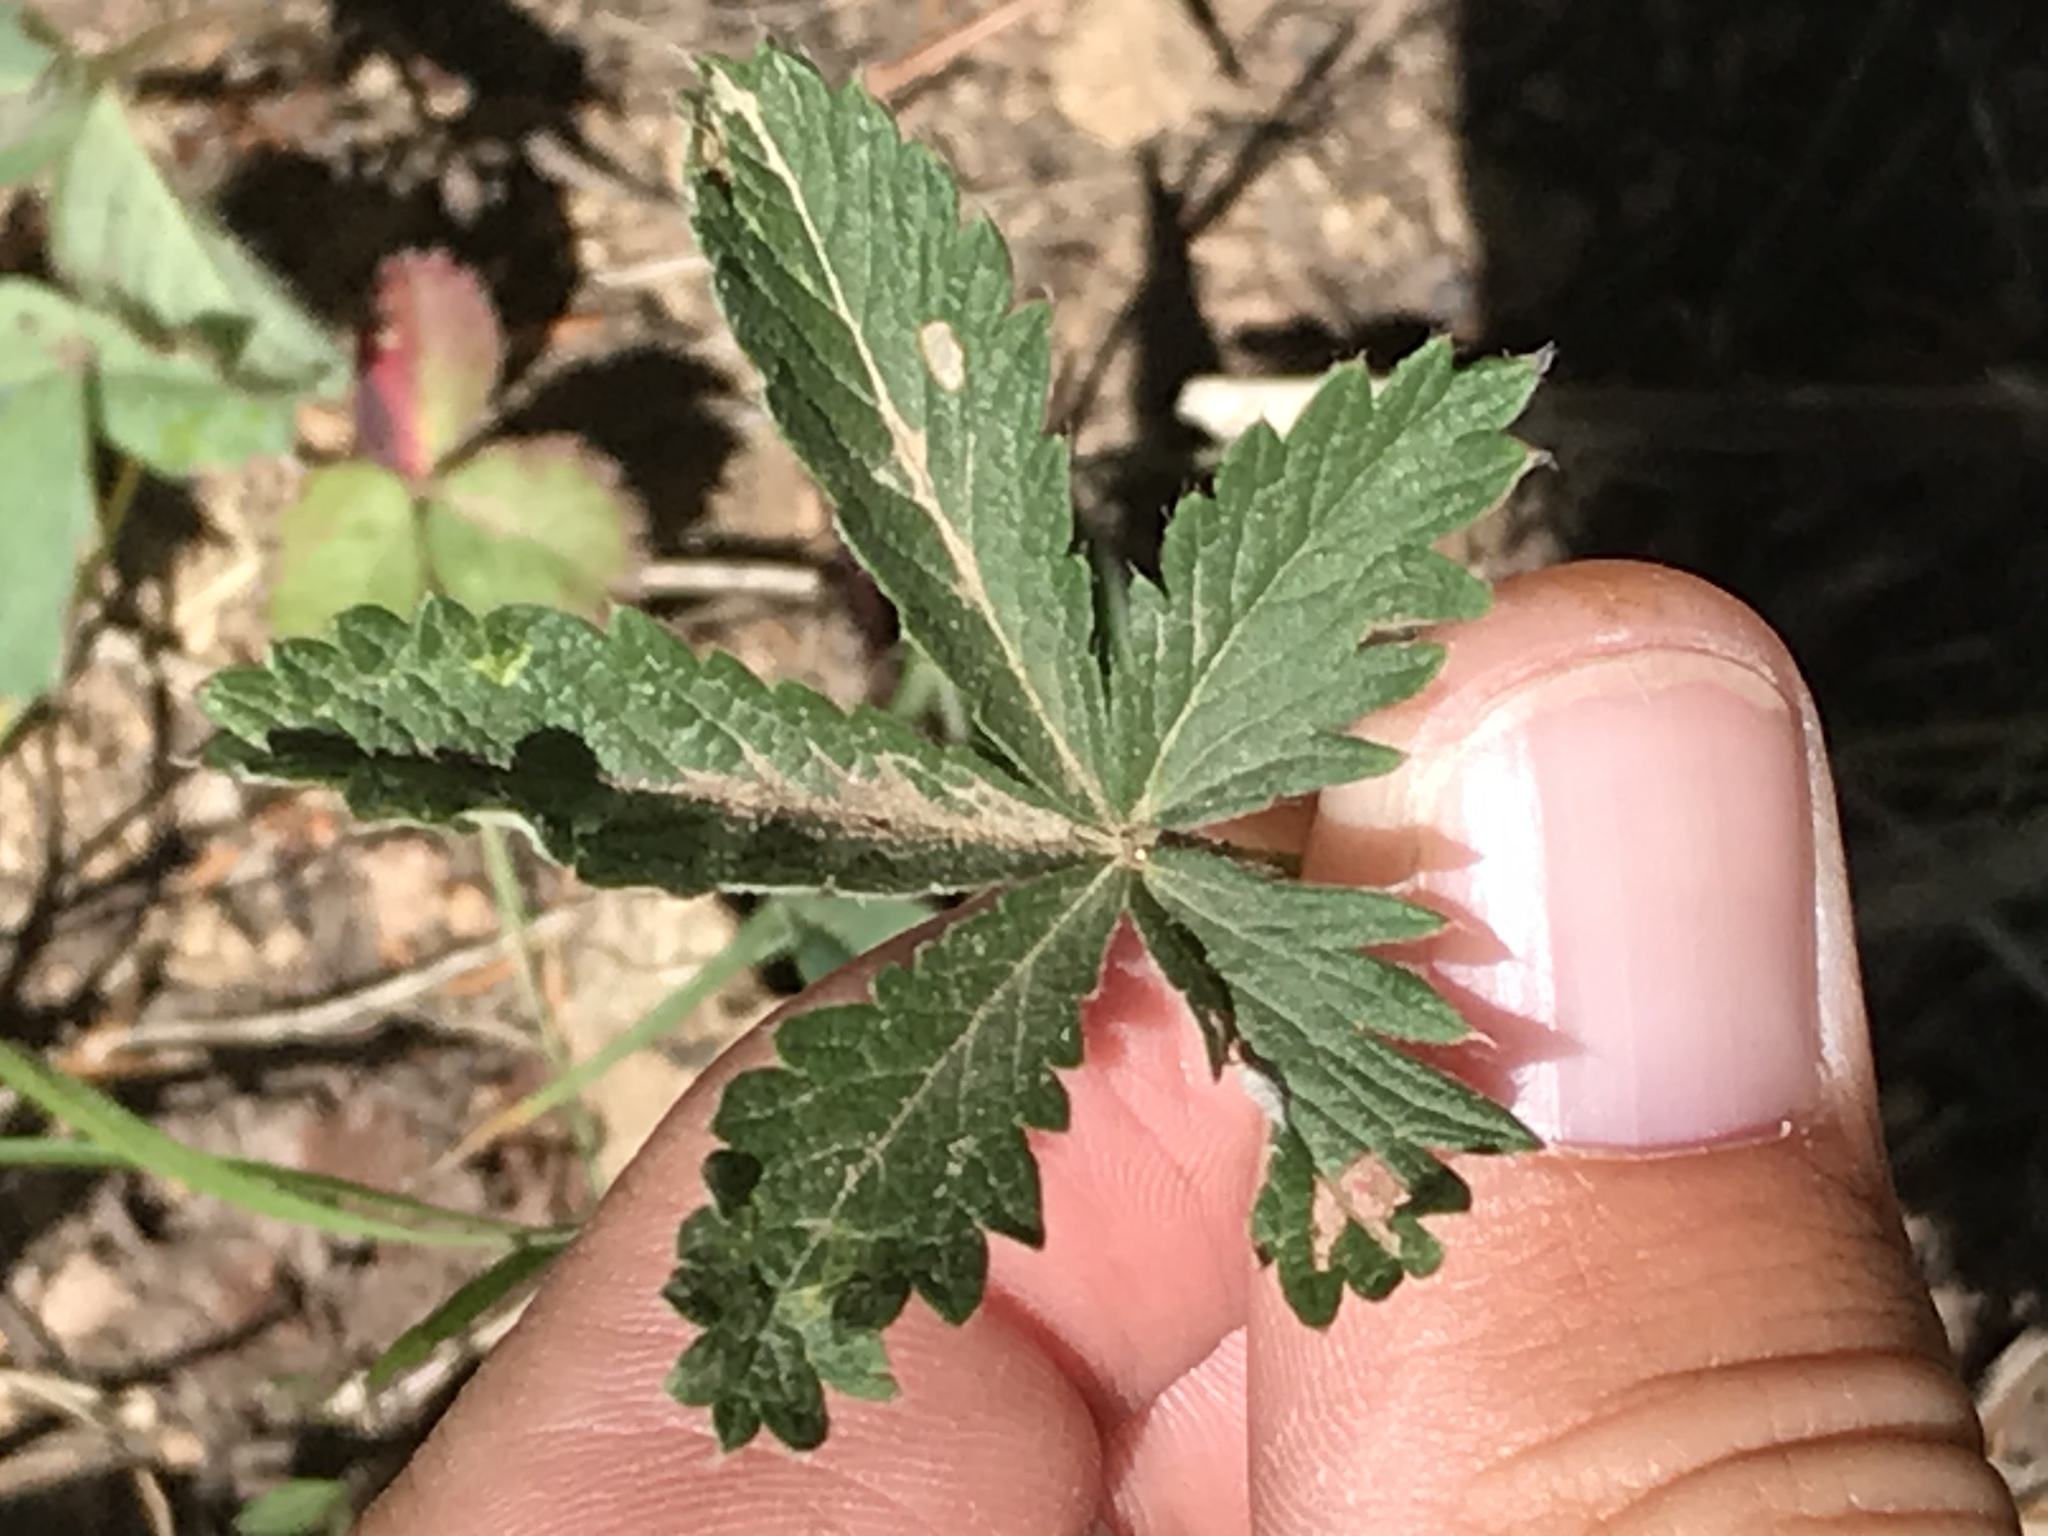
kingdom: Plantae
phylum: Tracheophyta
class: Magnoliopsida
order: Rosales
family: Rosaceae
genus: Potentilla
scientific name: Potentilla pulcherrima
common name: Beautiful cinquefoil
